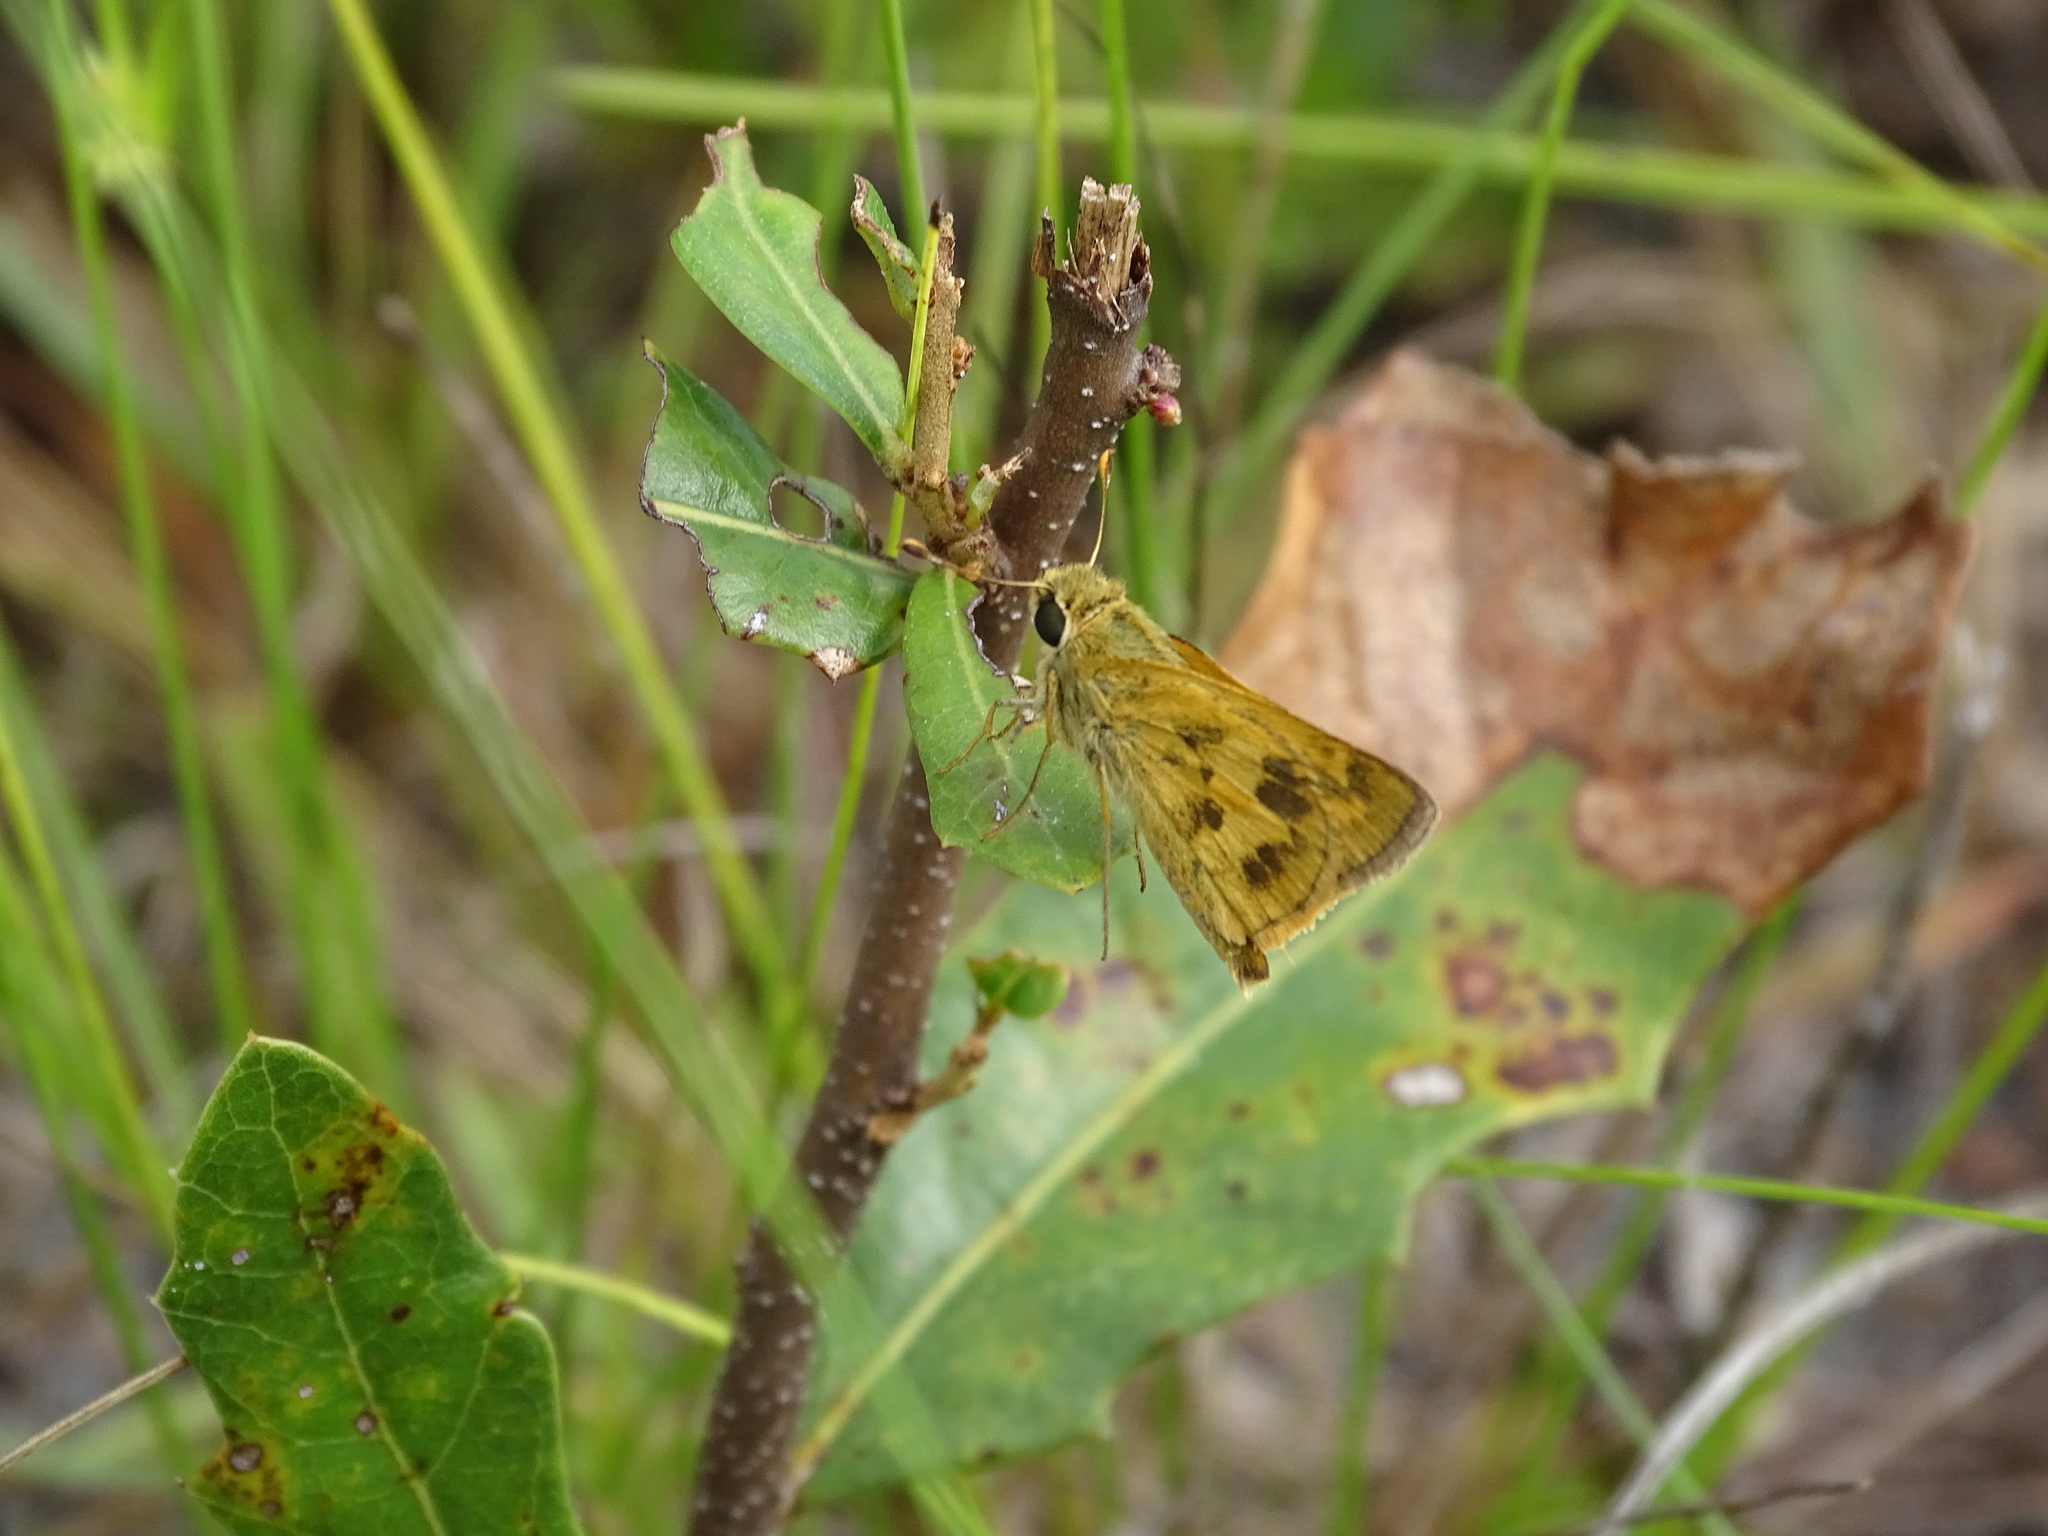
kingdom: Animalia
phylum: Arthropoda
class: Insecta
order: Lepidoptera
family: Hesperiidae
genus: Polites
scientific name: Polites vibex
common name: Whirlabout
